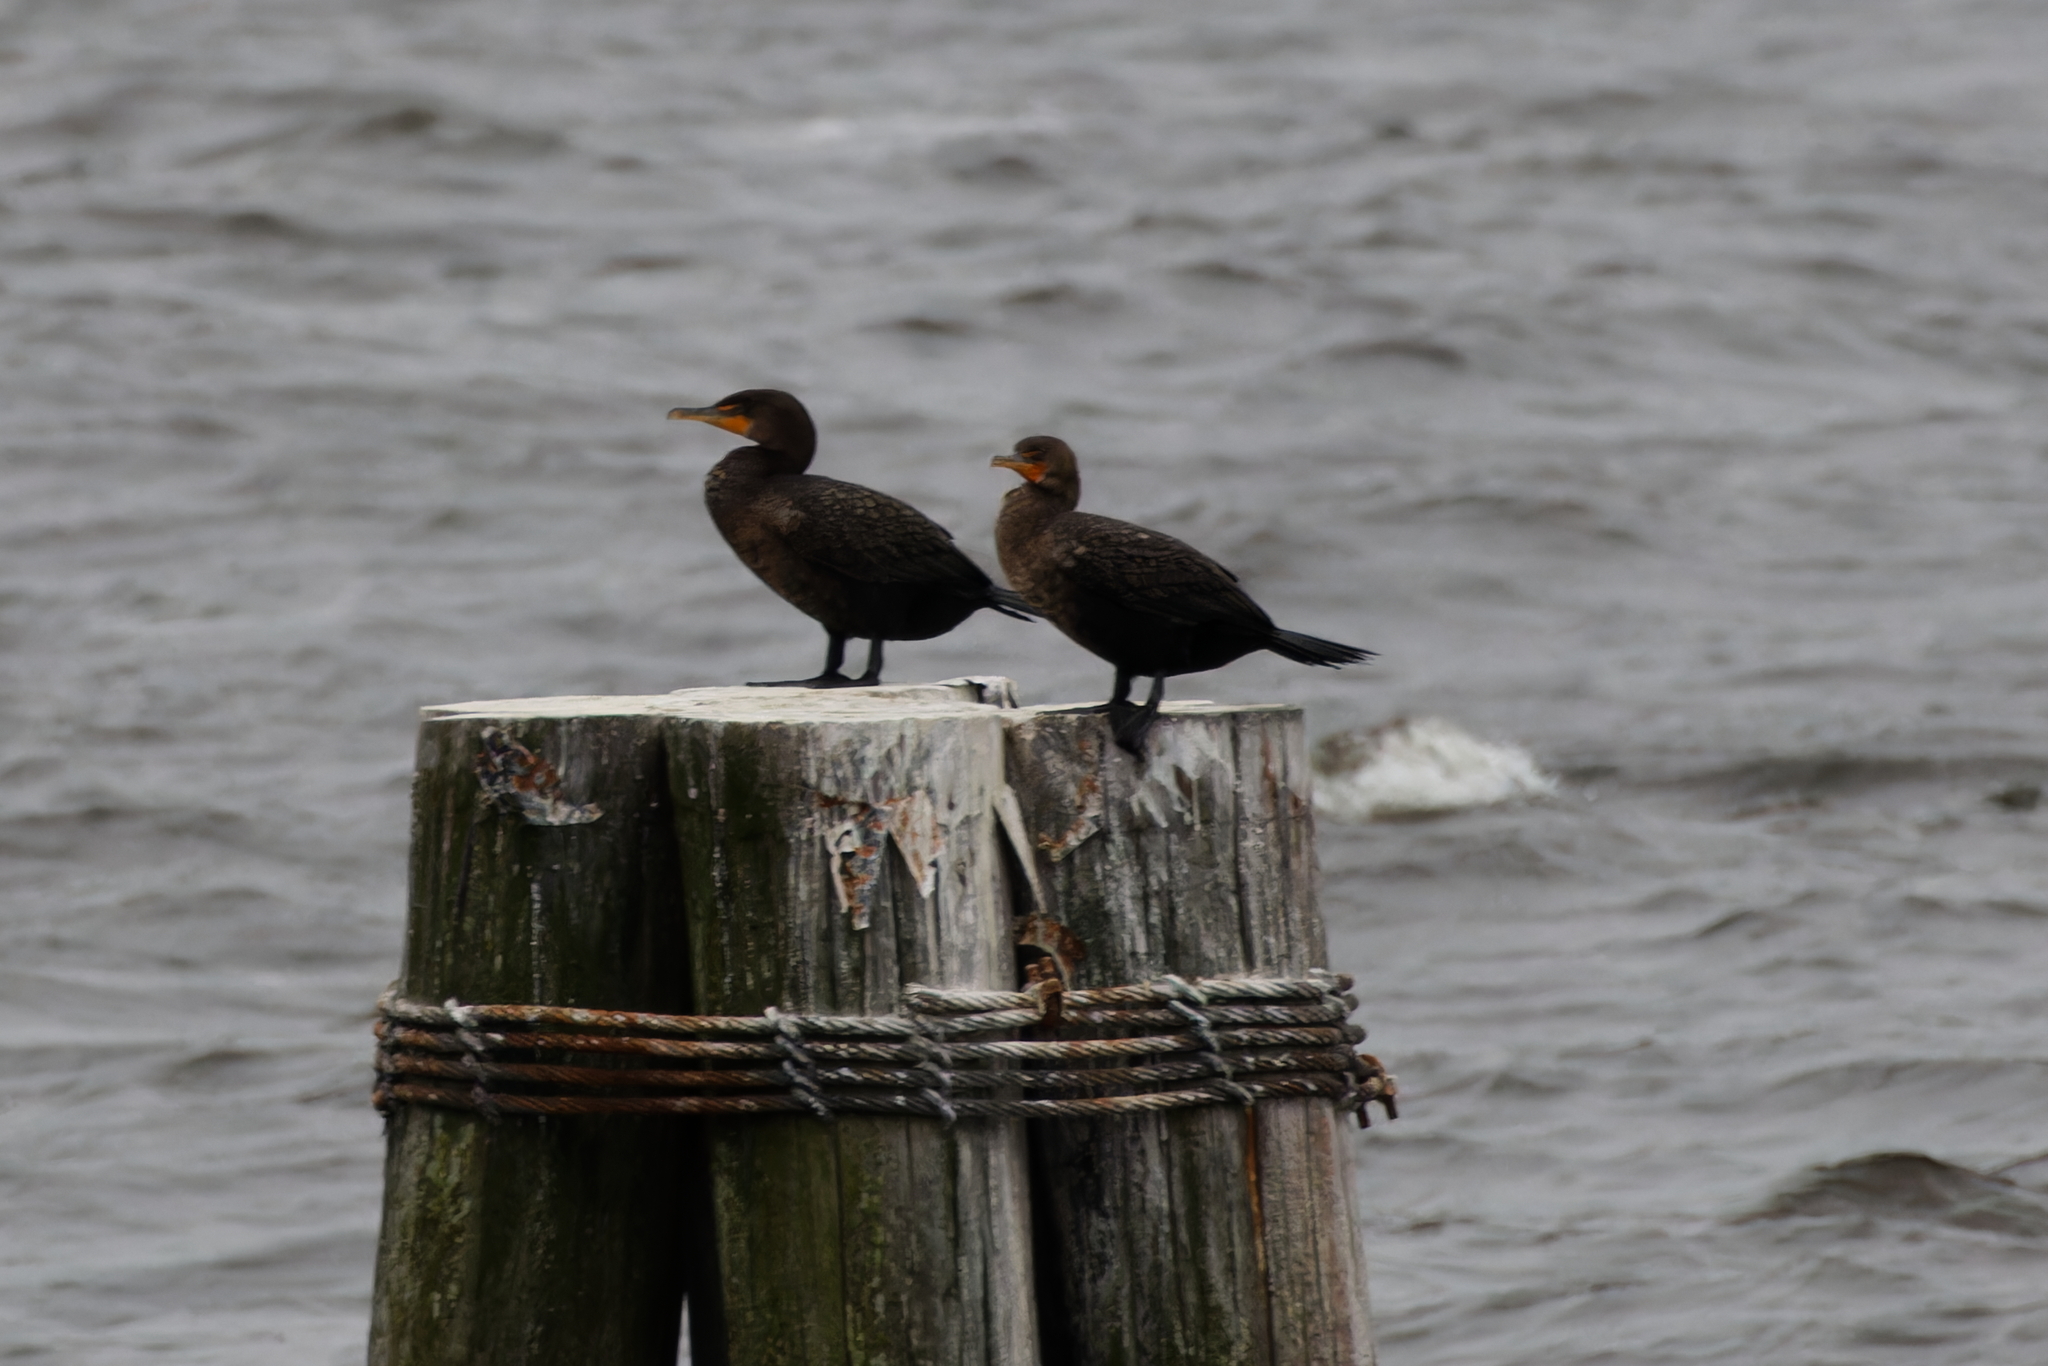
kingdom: Animalia
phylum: Chordata
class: Aves
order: Suliformes
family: Phalacrocoracidae
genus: Phalacrocorax
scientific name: Phalacrocorax auritus
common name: Double-crested cormorant
